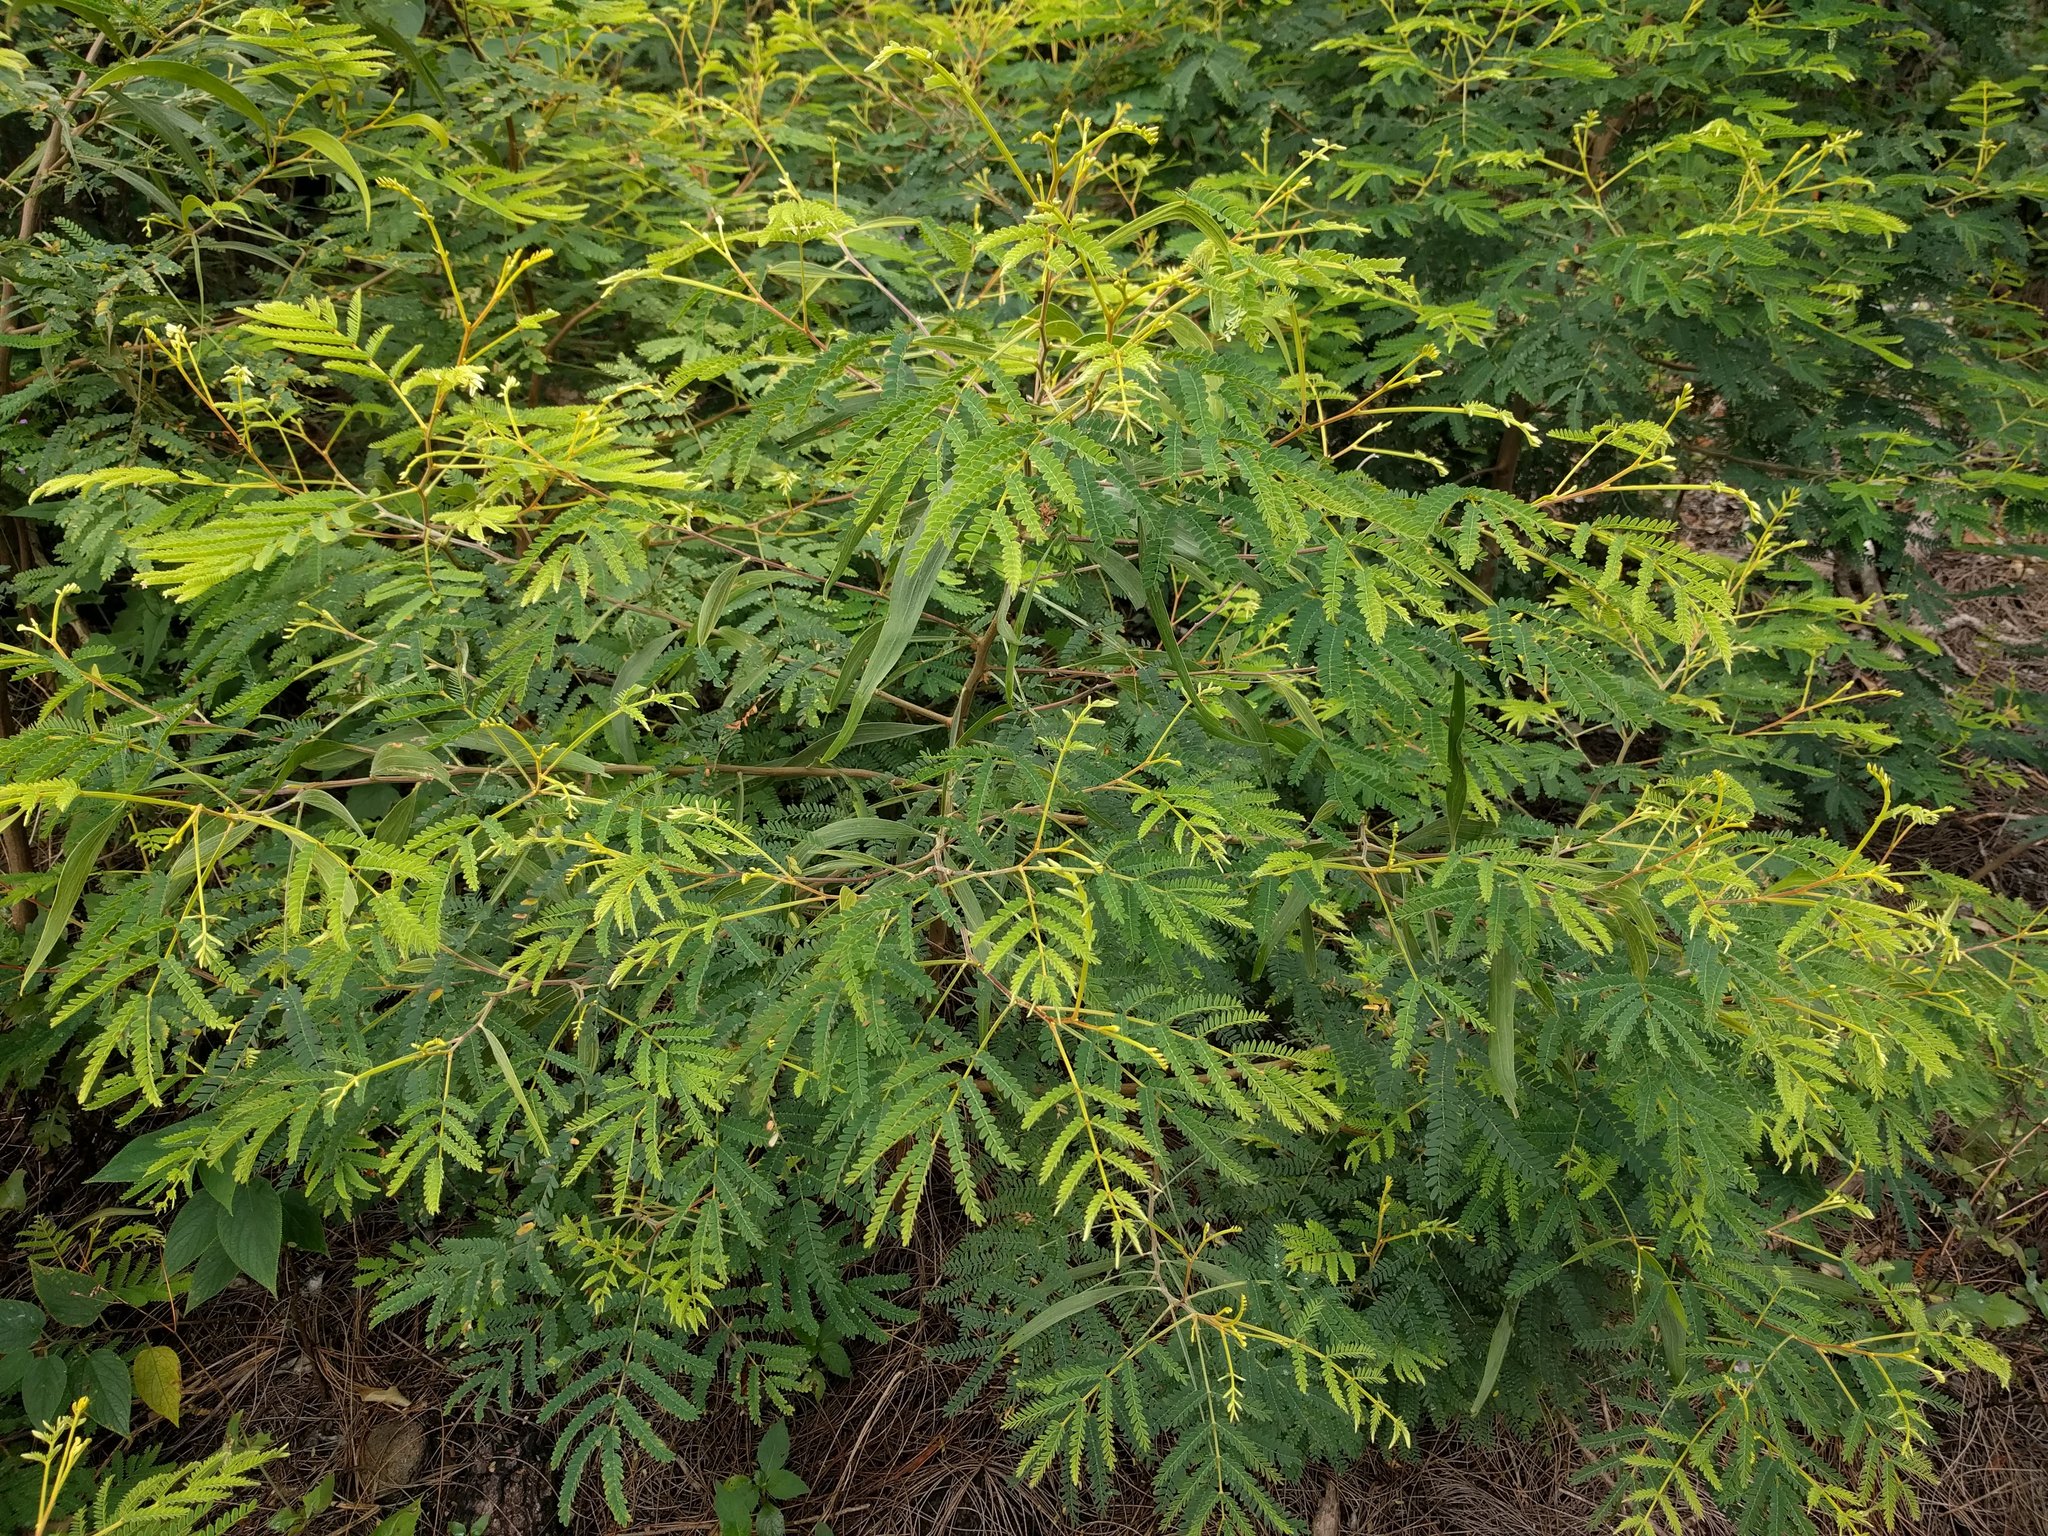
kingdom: Plantae
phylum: Tracheophyta
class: Magnoliopsida
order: Fabales
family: Fabaceae
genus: Acacia
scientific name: Acacia koa
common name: Gray koa
